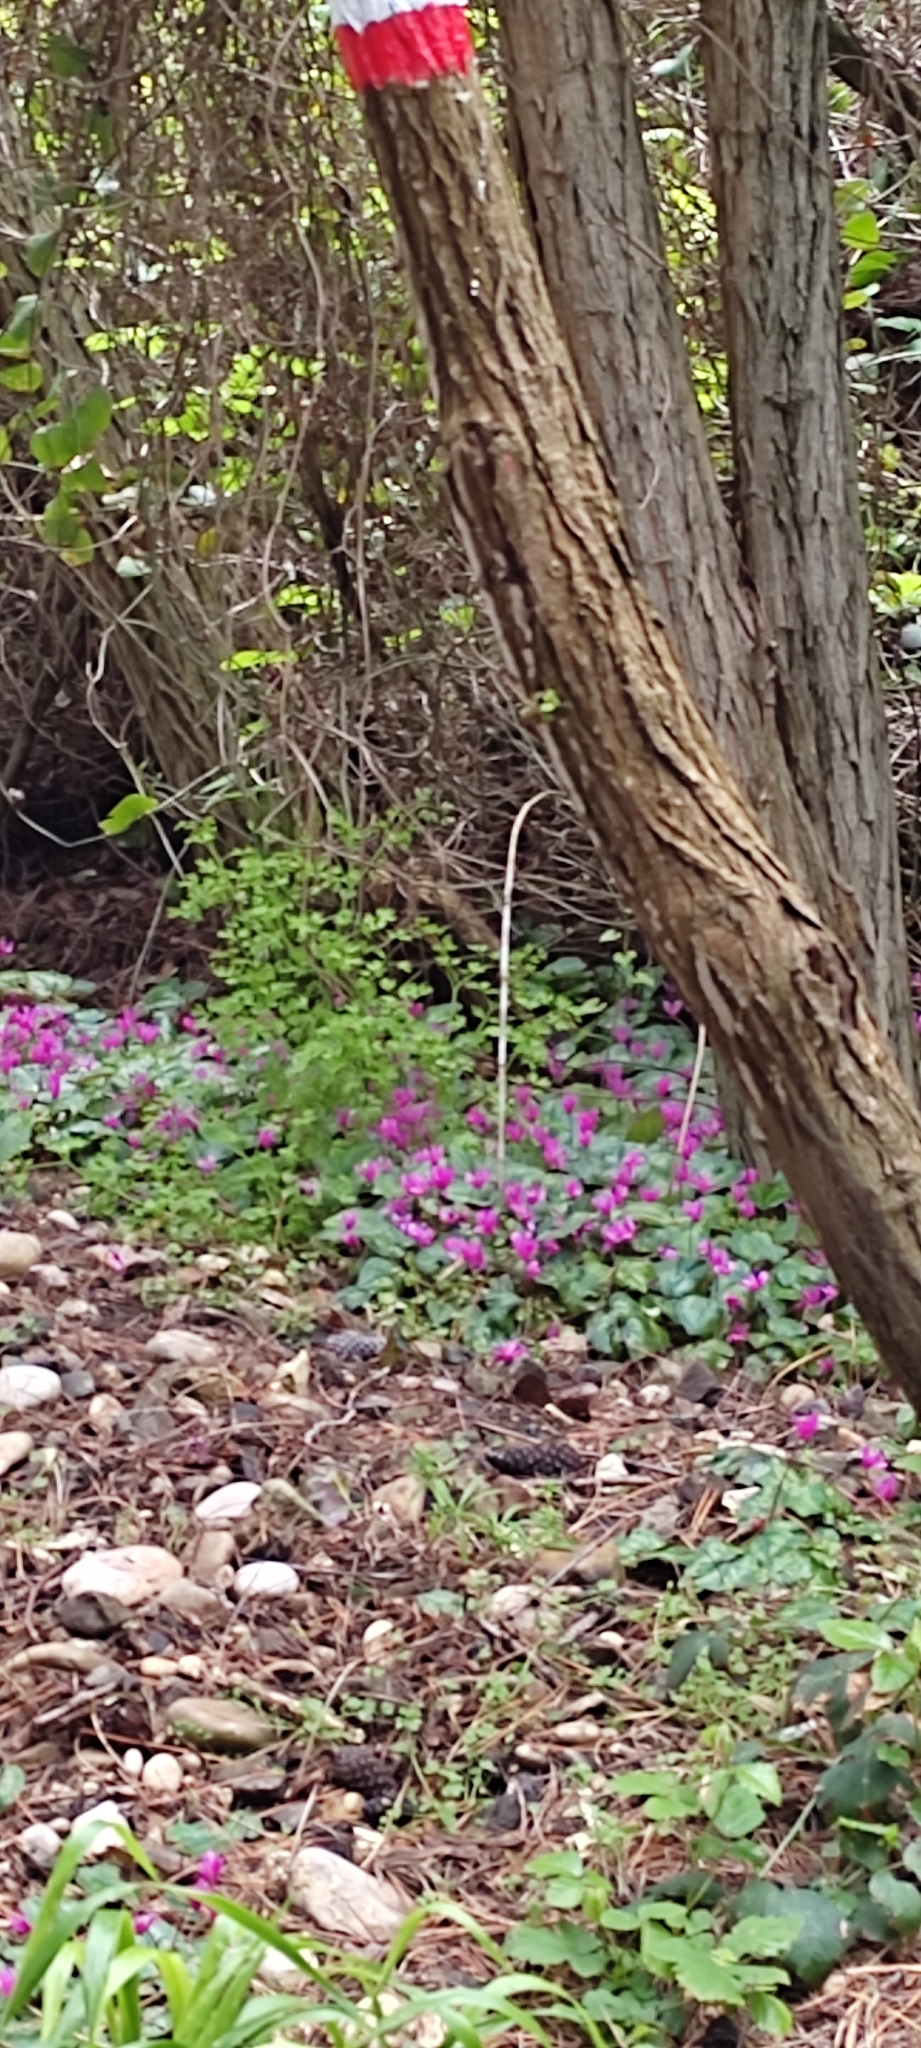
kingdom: Plantae
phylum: Tracheophyta
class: Magnoliopsida
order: Ericales
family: Primulaceae
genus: Cyclamen
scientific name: Cyclamen repandum
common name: Spring sowbread
